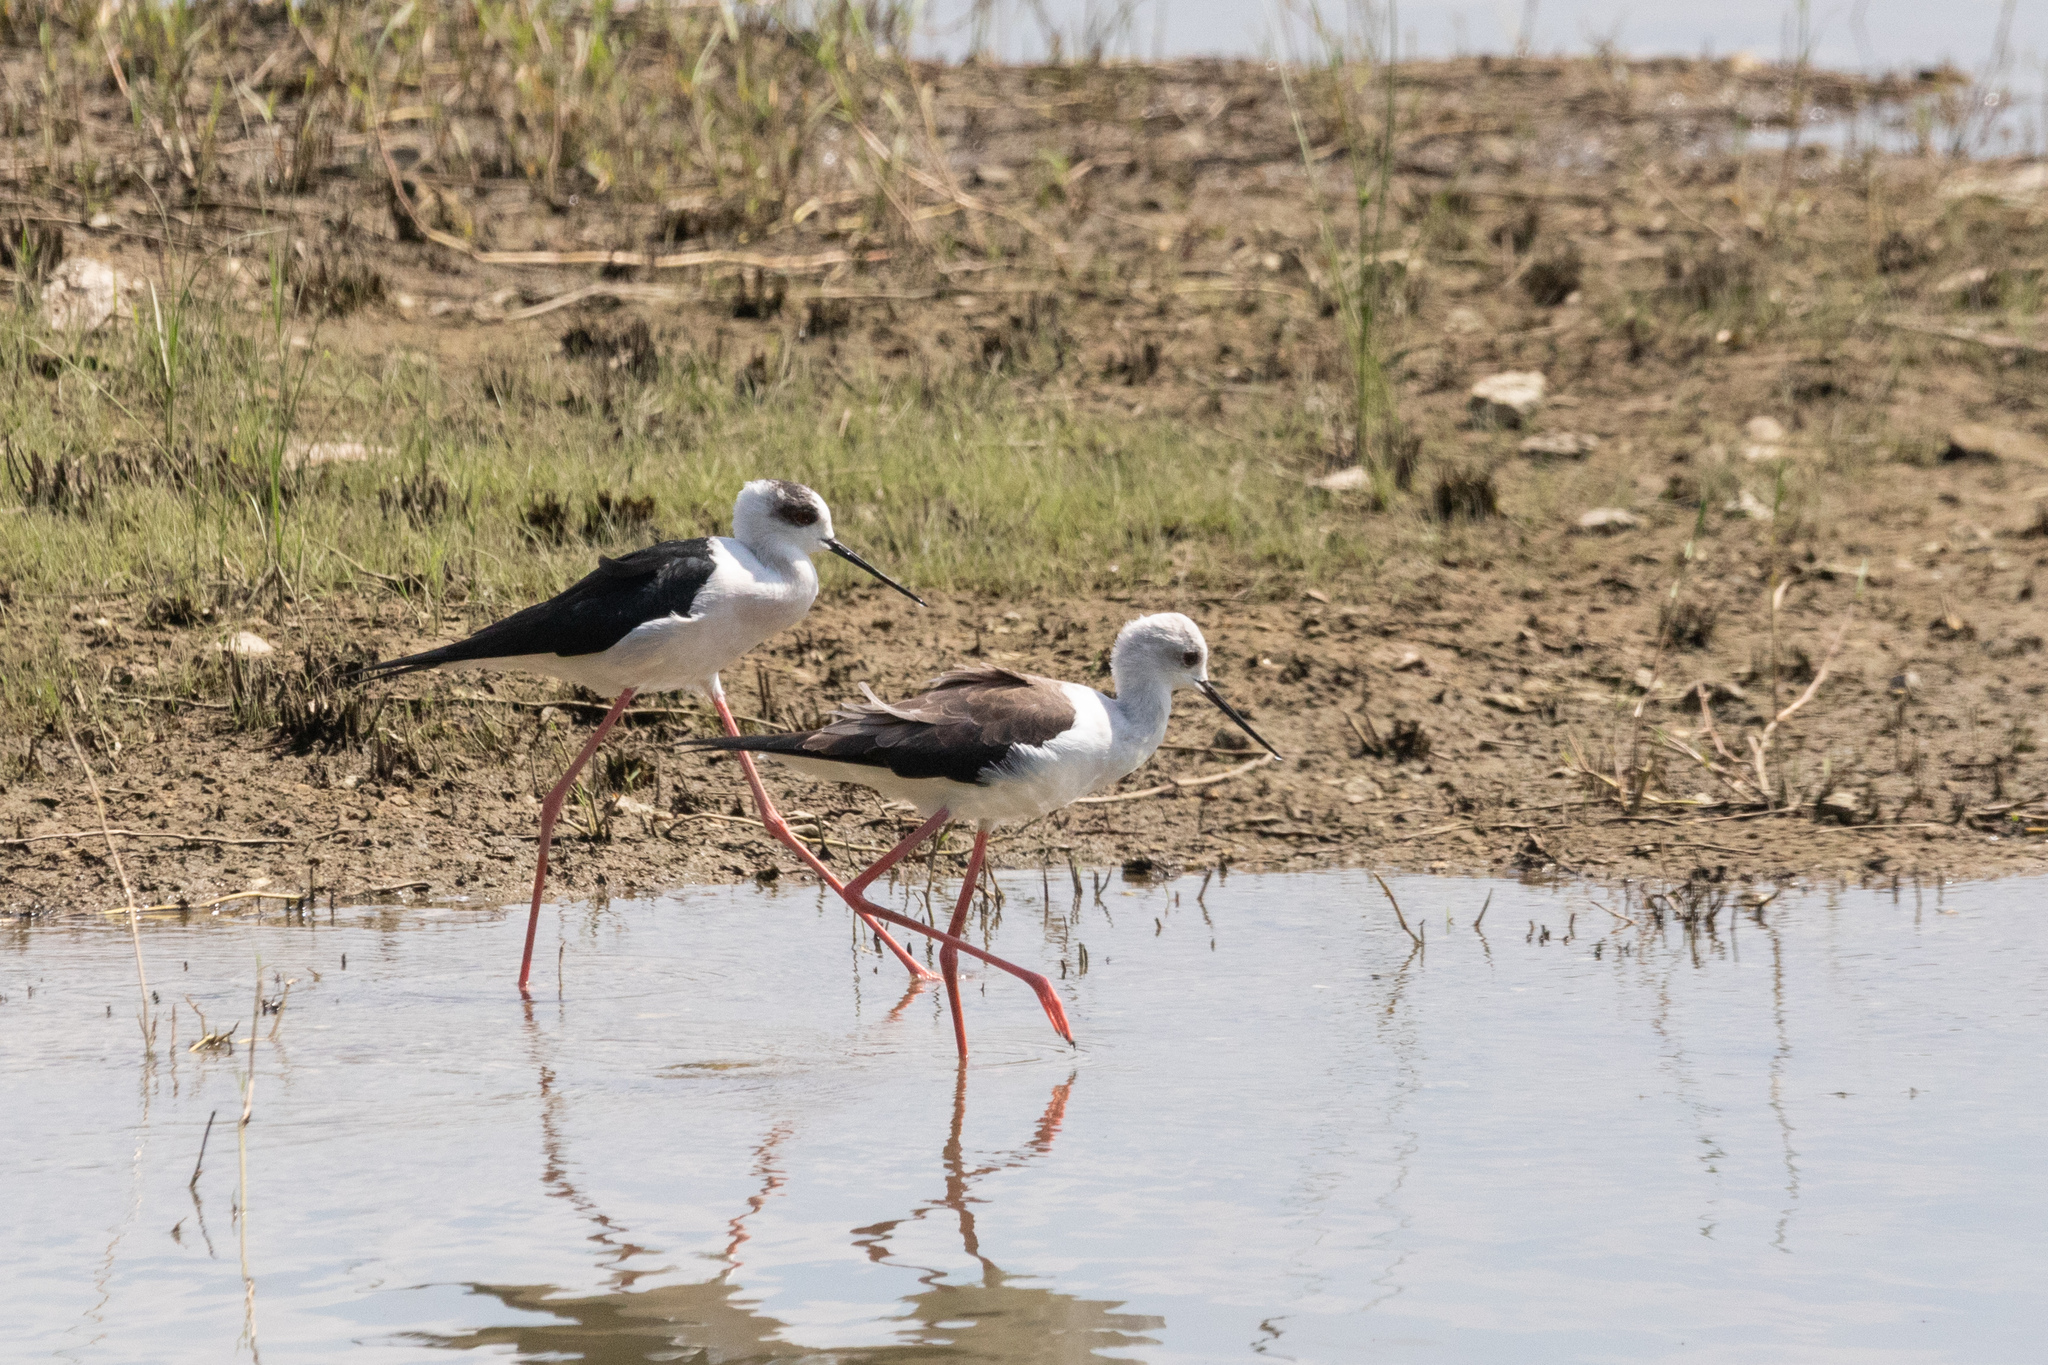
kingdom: Animalia
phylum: Chordata
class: Aves
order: Charadriiformes
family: Recurvirostridae
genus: Himantopus
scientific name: Himantopus himantopus
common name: Black-winged stilt
